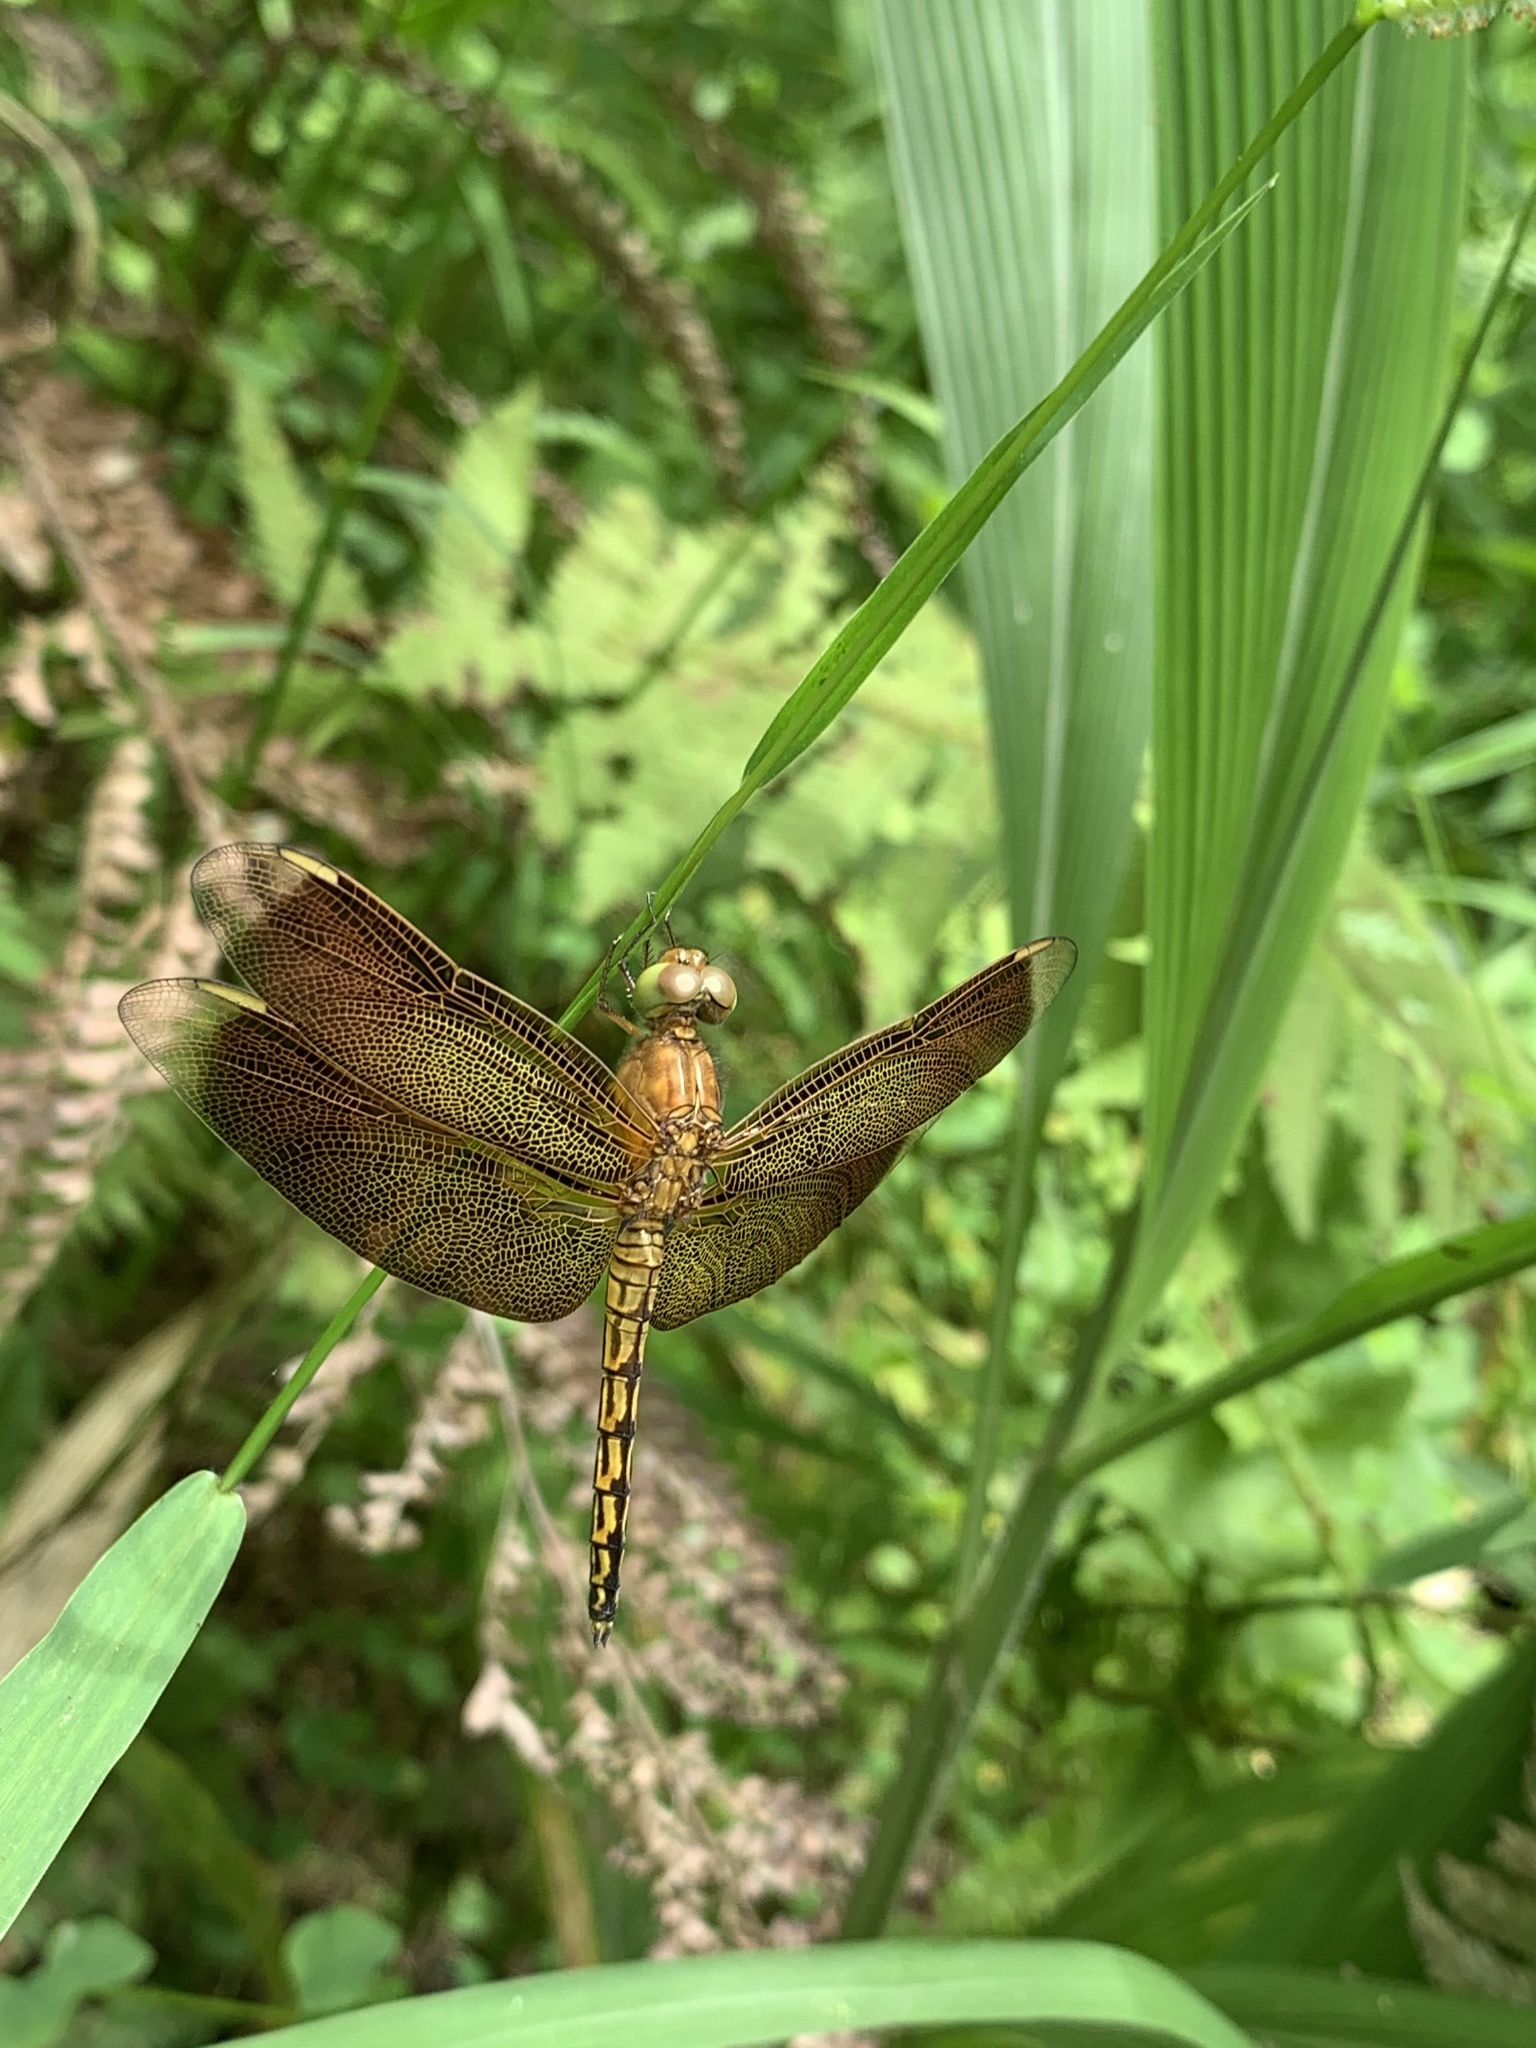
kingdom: Animalia
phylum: Arthropoda
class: Insecta
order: Odonata
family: Libellulidae
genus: Neurothemis
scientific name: Neurothemis taiwanensis
